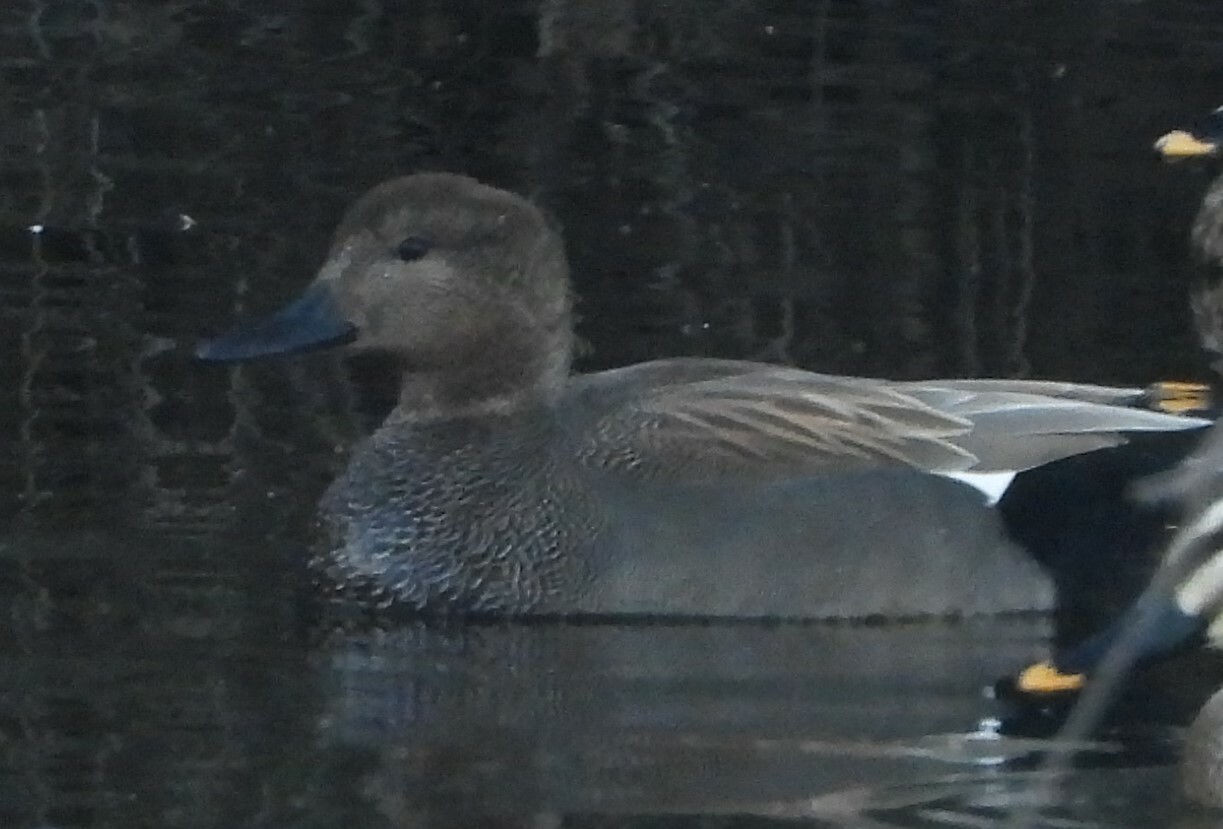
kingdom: Animalia
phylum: Chordata
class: Aves
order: Anseriformes
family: Anatidae
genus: Mareca
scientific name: Mareca strepera
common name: Gadwall
